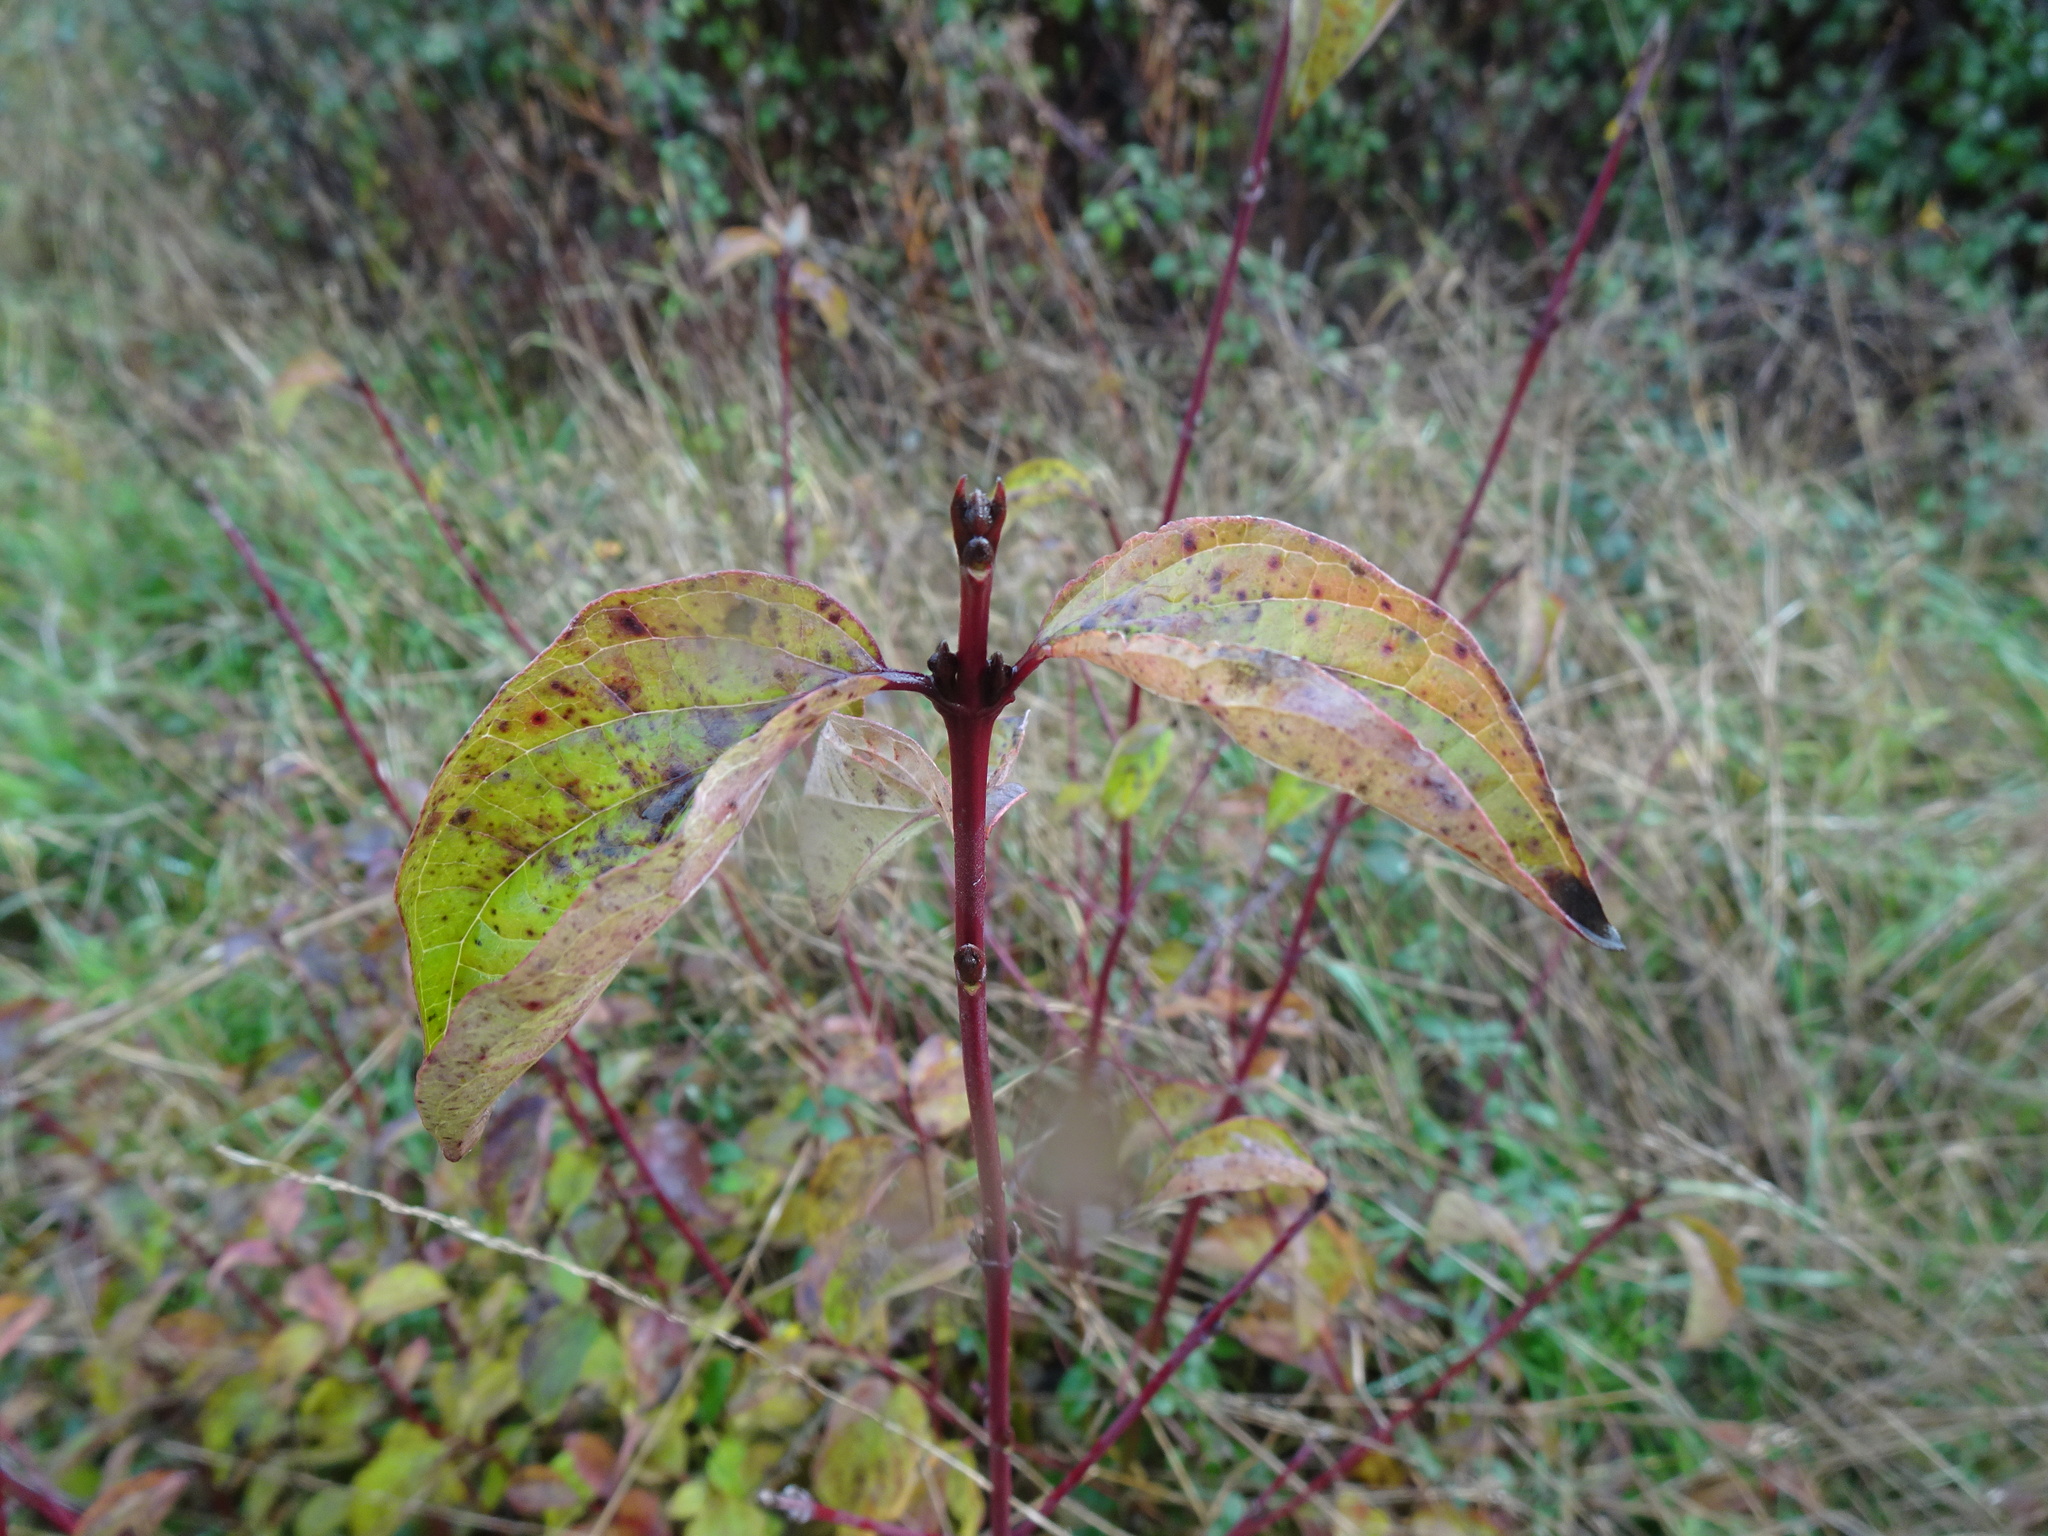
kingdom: Plantae
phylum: Tracheophyta
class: Magnoliopsida
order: Cornales
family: Cornaceae
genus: Cornus
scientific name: Cornus sanguinea
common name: Dogwood
